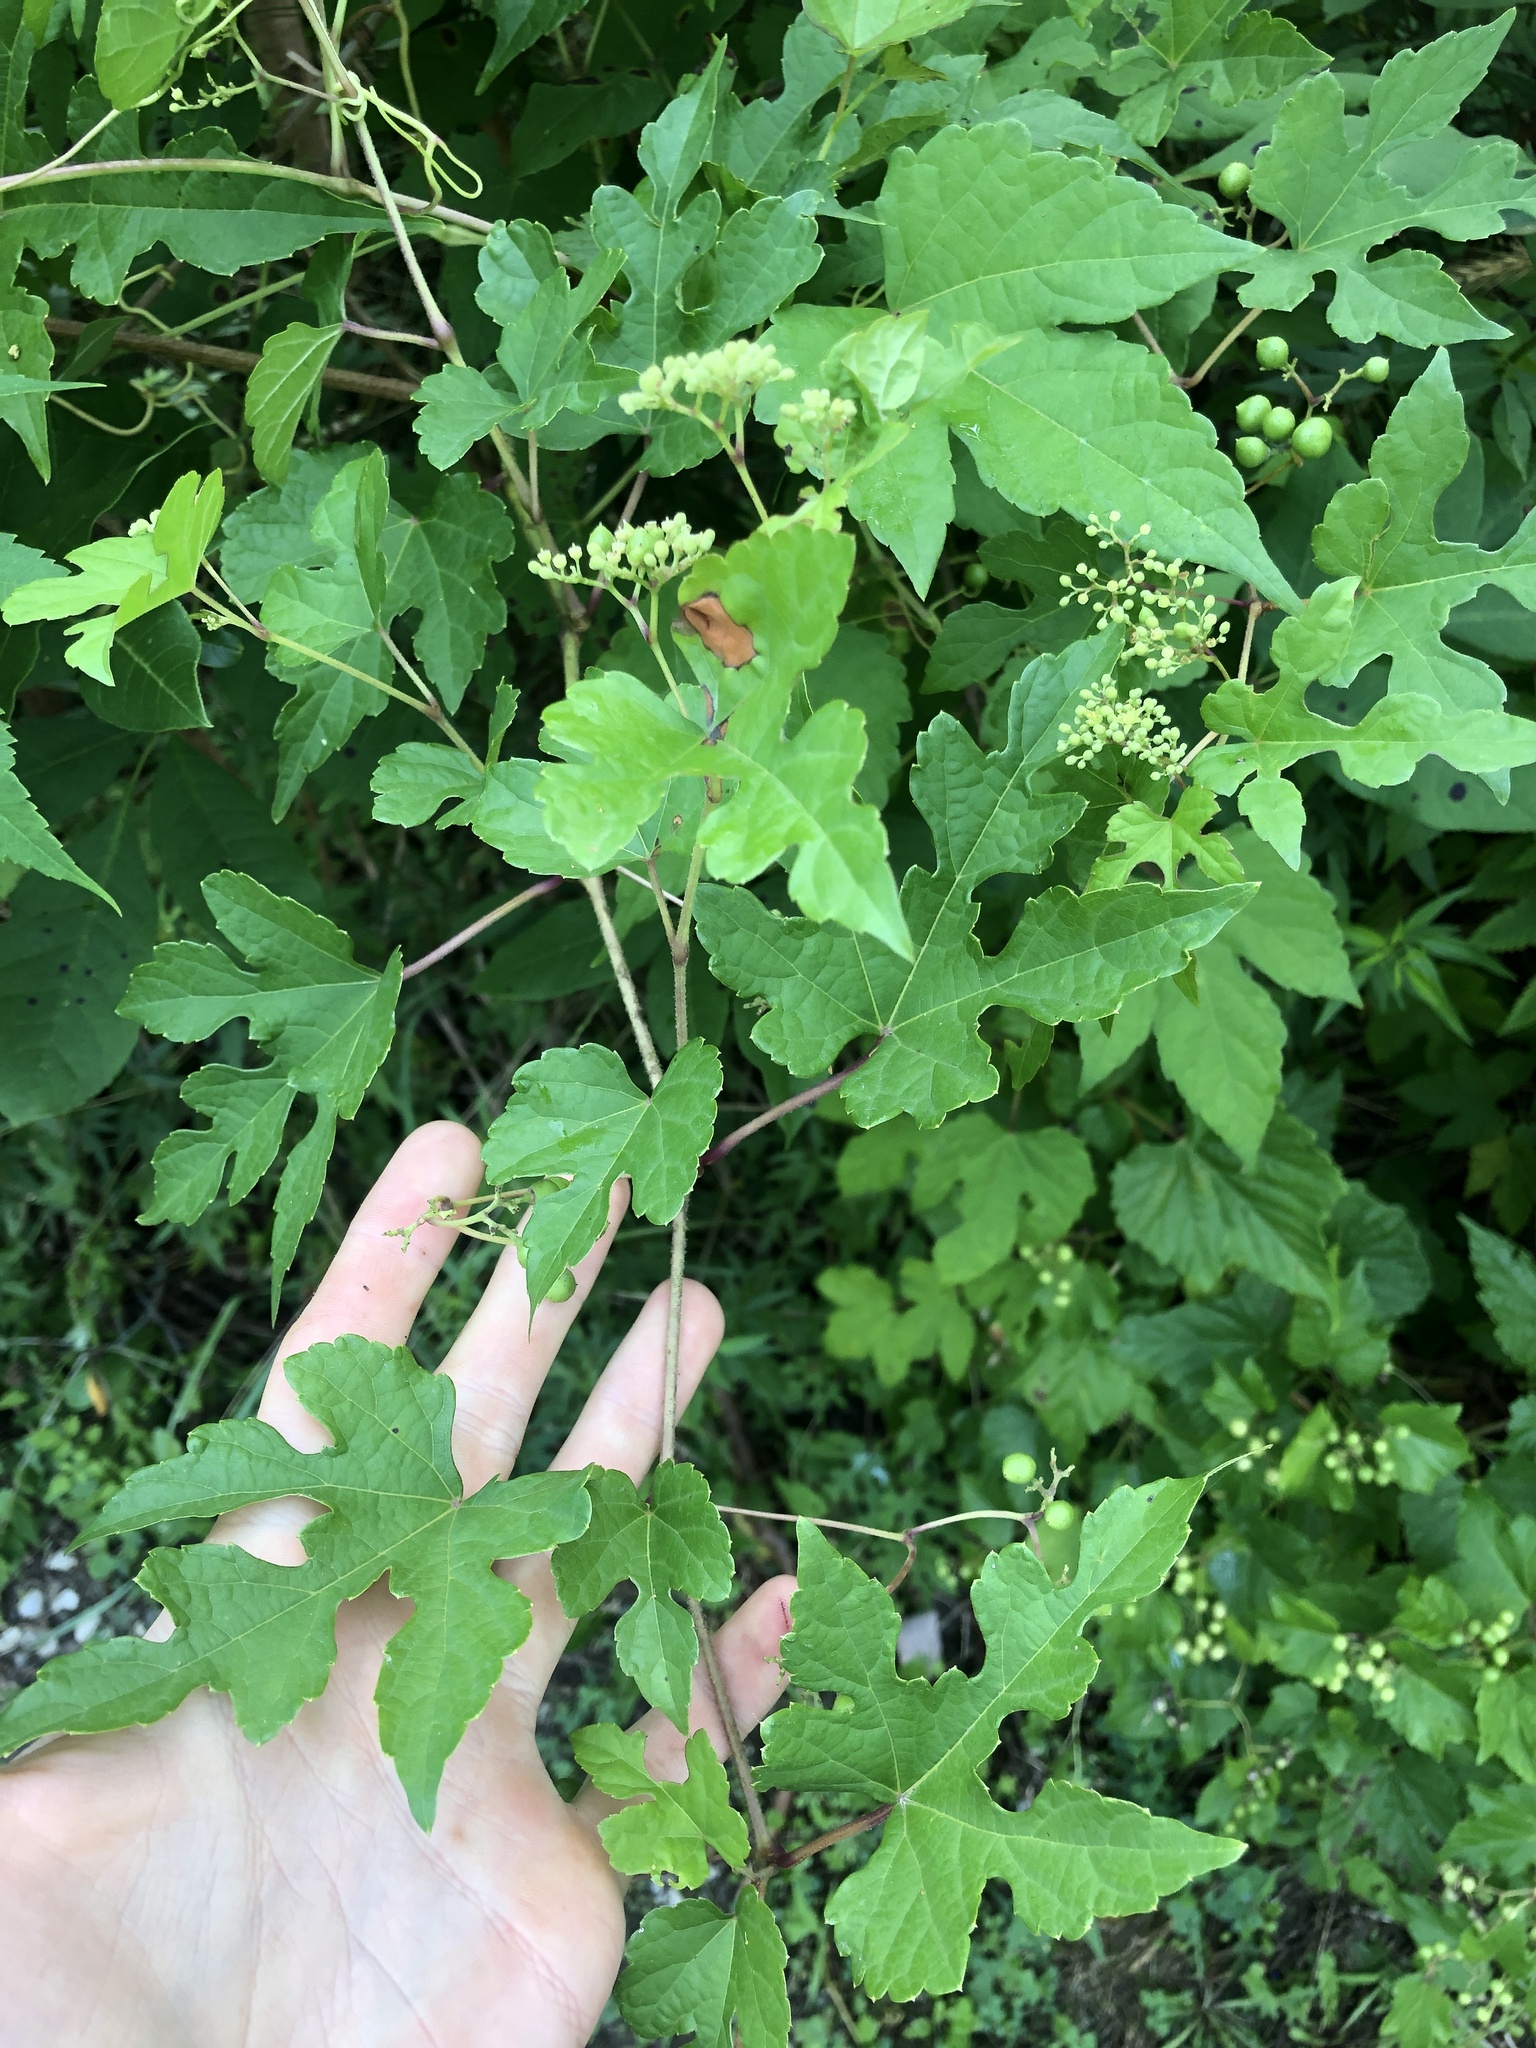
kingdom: Plantae
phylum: Tracheophyta
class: Magnoliopsida
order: Vitales
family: Vitaceae
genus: Ampelopsis
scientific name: Ampelopsis glandulosa
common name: Amur peppervine
